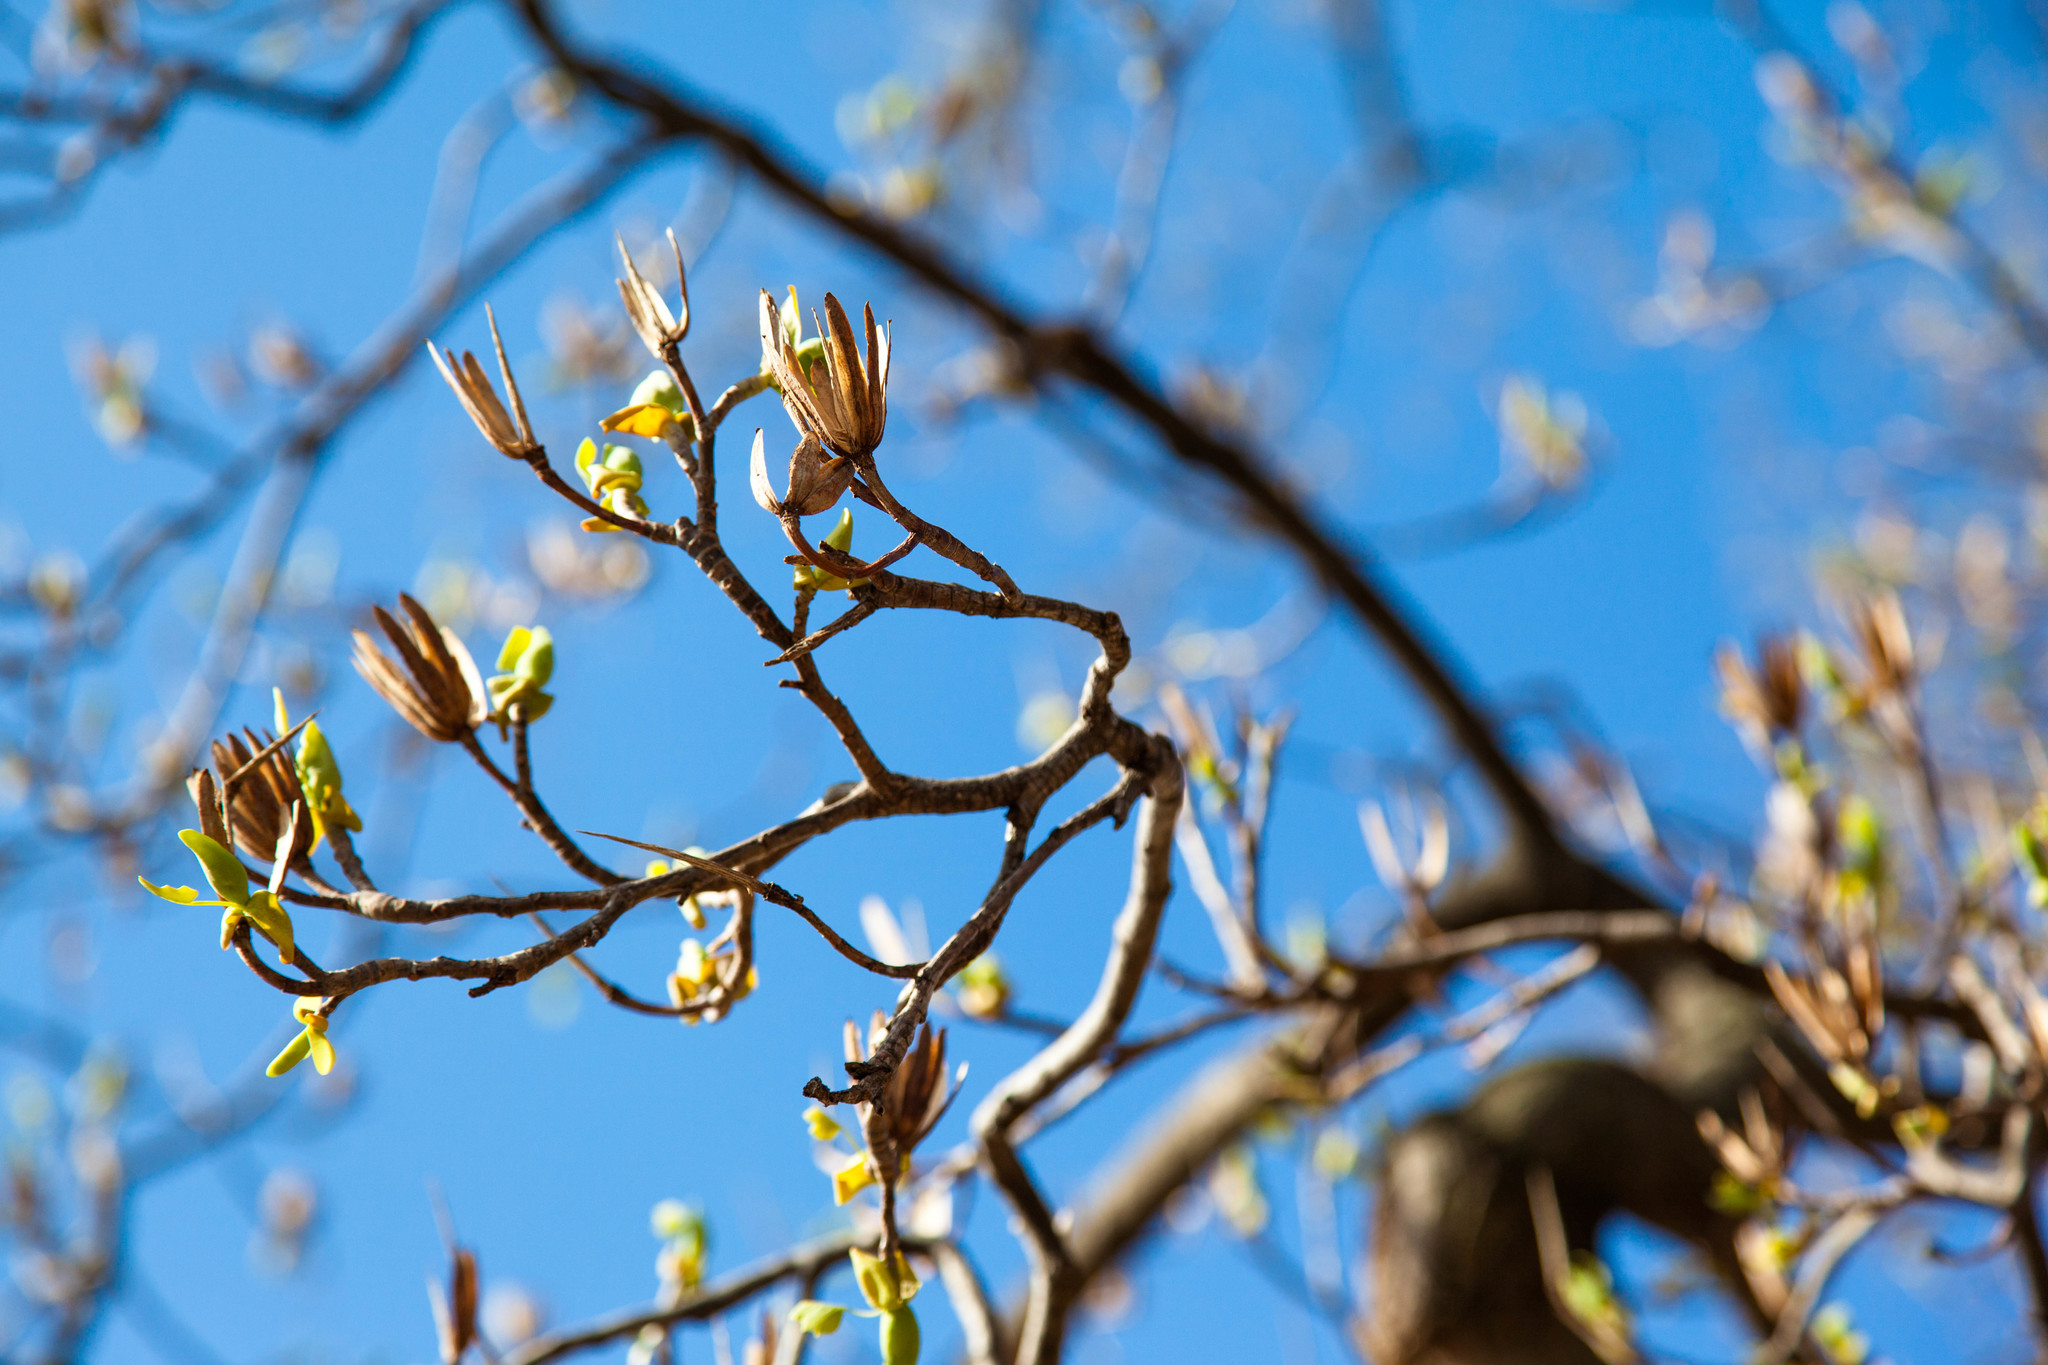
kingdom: Plantae
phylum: Tracheophyta
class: Magnoliopsida
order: Magnoliales
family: Magnoliaceae
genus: Liriodendron
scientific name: Liriodendron tulipifera
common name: Tulip tree
